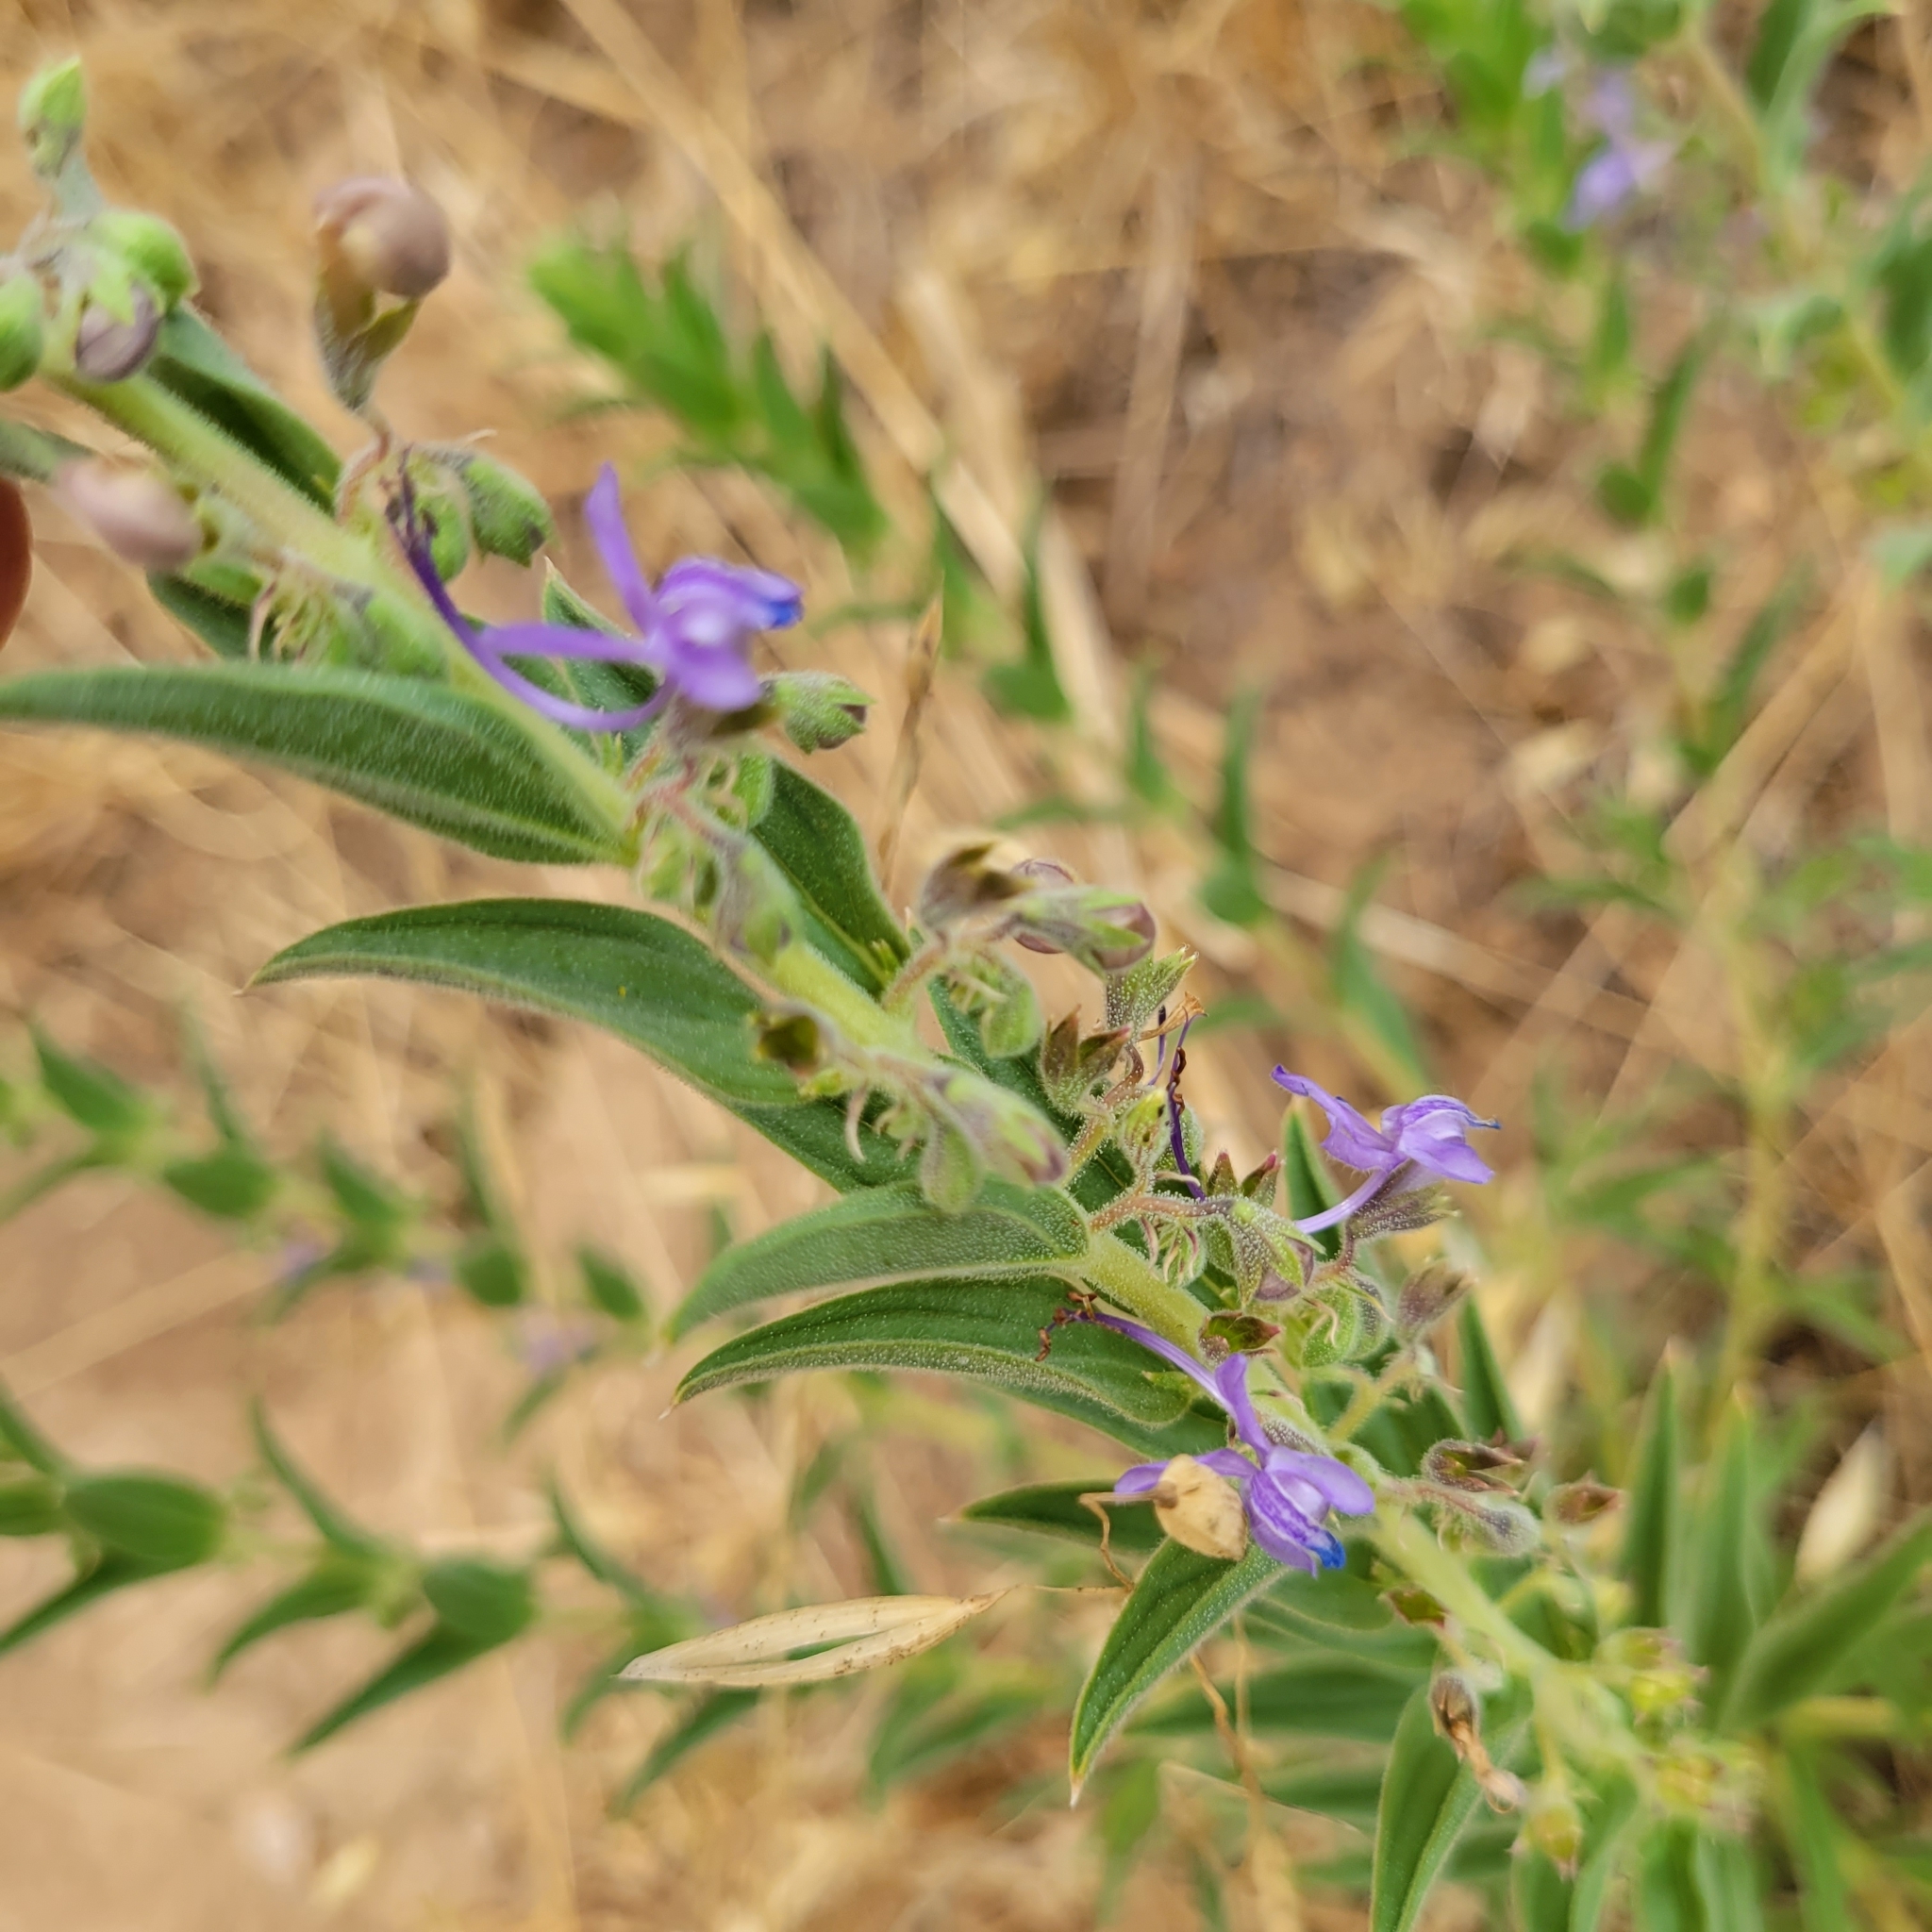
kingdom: Plantae
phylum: Tracheophyta
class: Magnoliopsida
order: Lamiales
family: Lamiaceae
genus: Trichostema
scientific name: Trichostema lanceolatum
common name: Vinegar-weed
